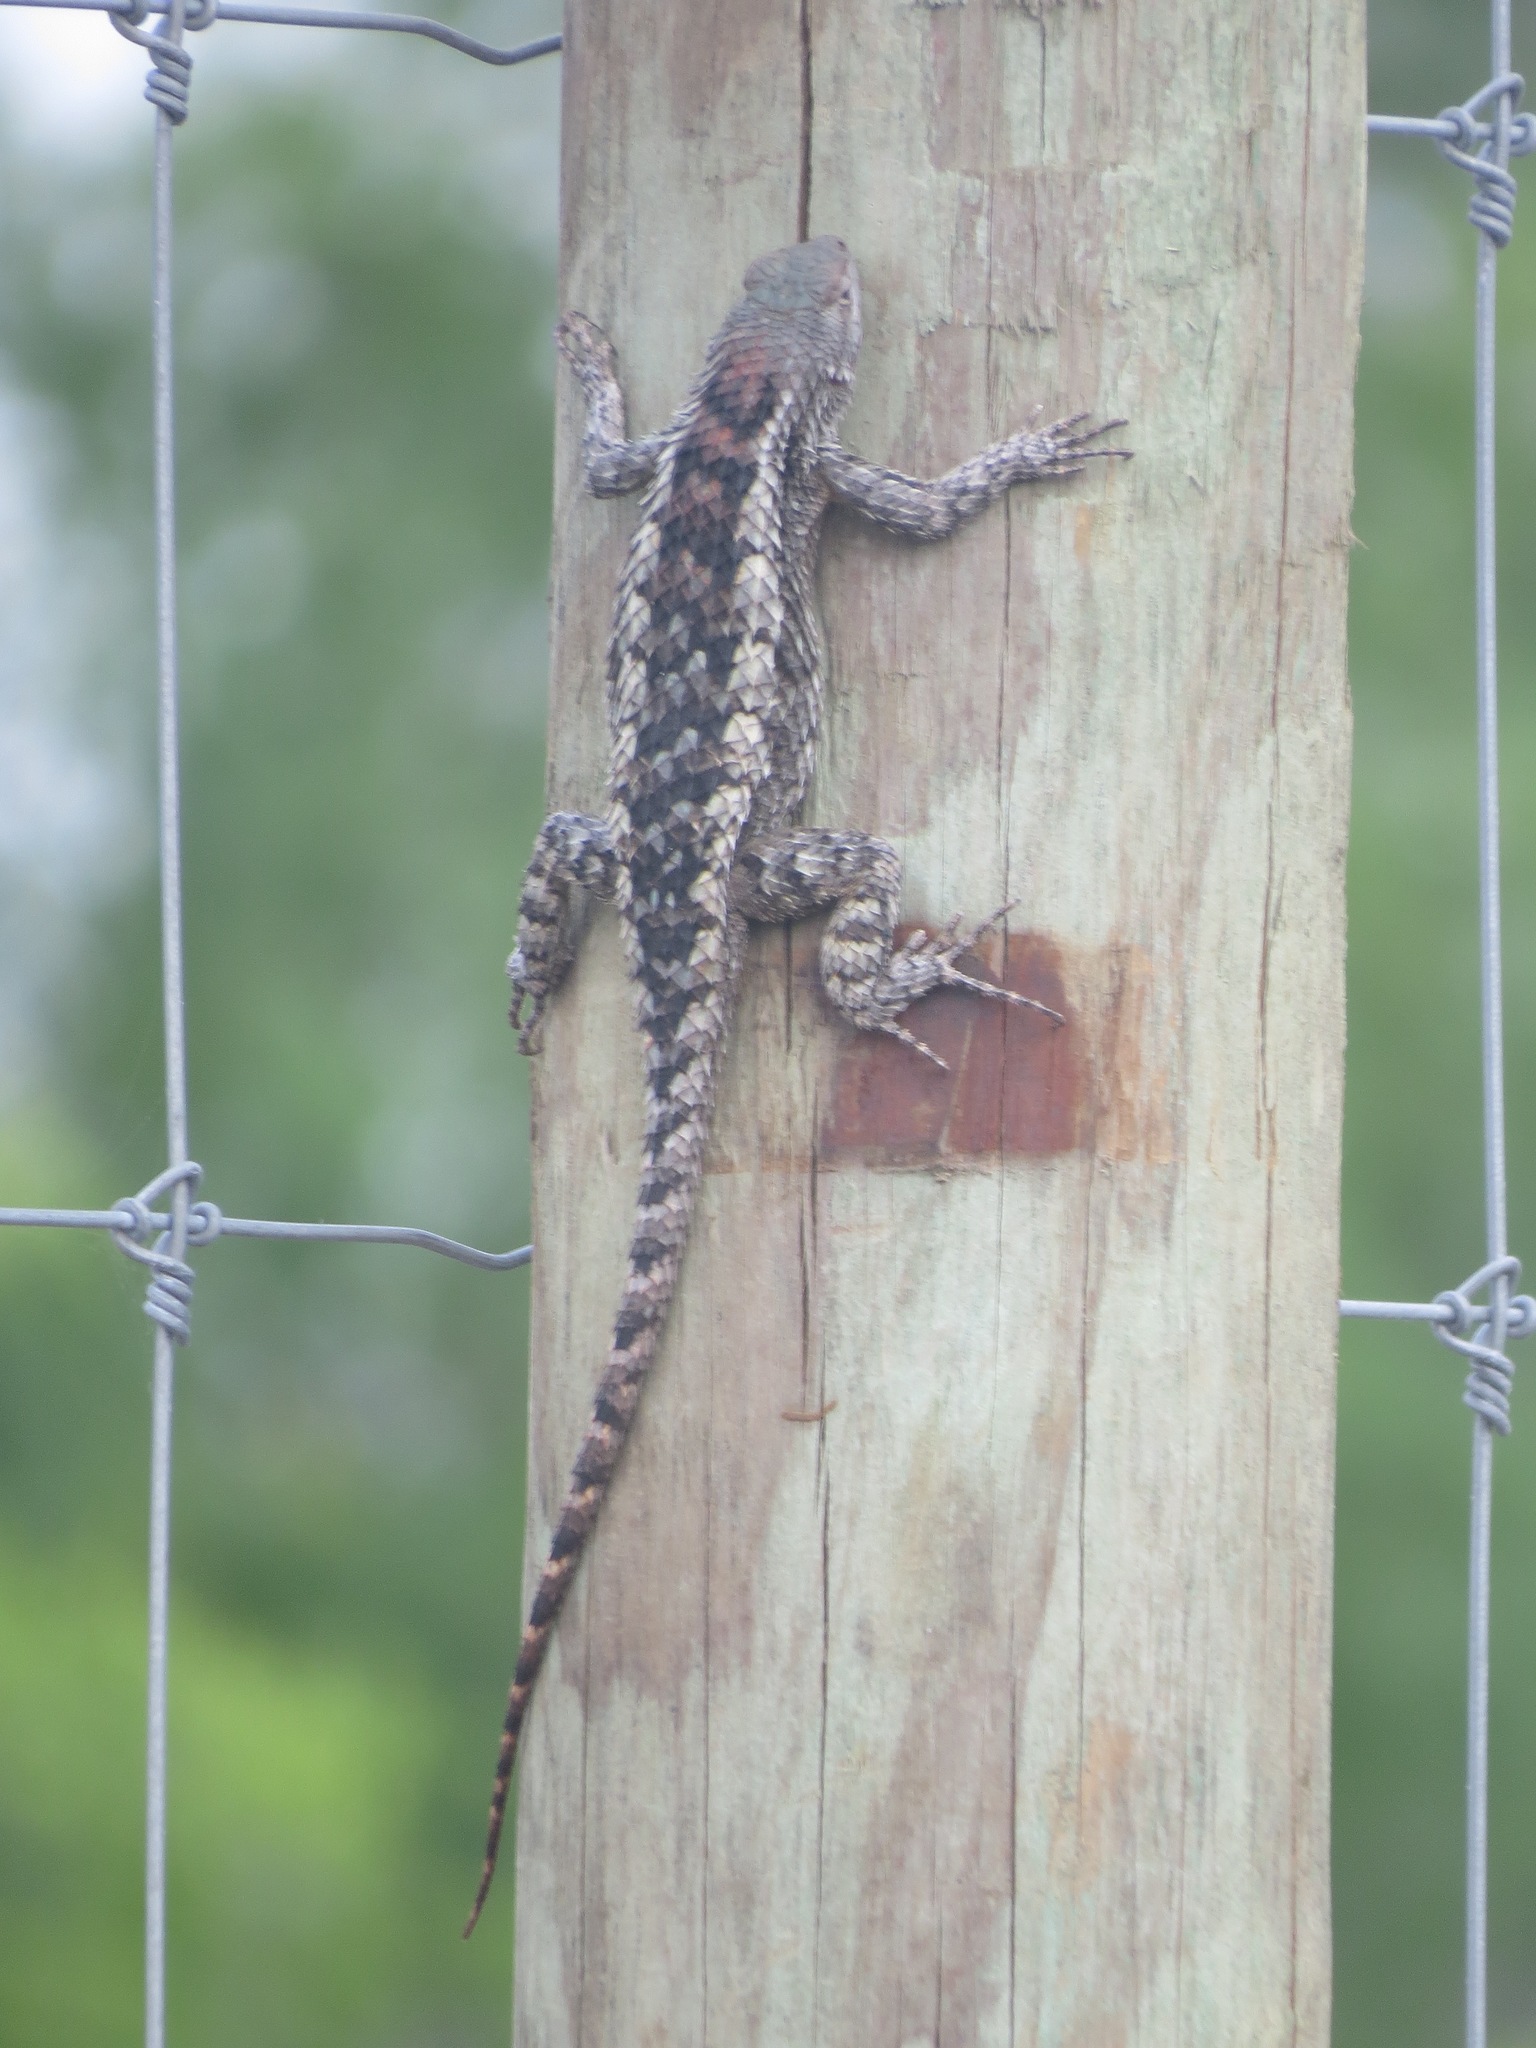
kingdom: Animalia
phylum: Chordata
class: Squamata
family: Phrynosomatidae
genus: Sceloporus
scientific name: Sceloporus olivaceus
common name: Texas spiny lizard
